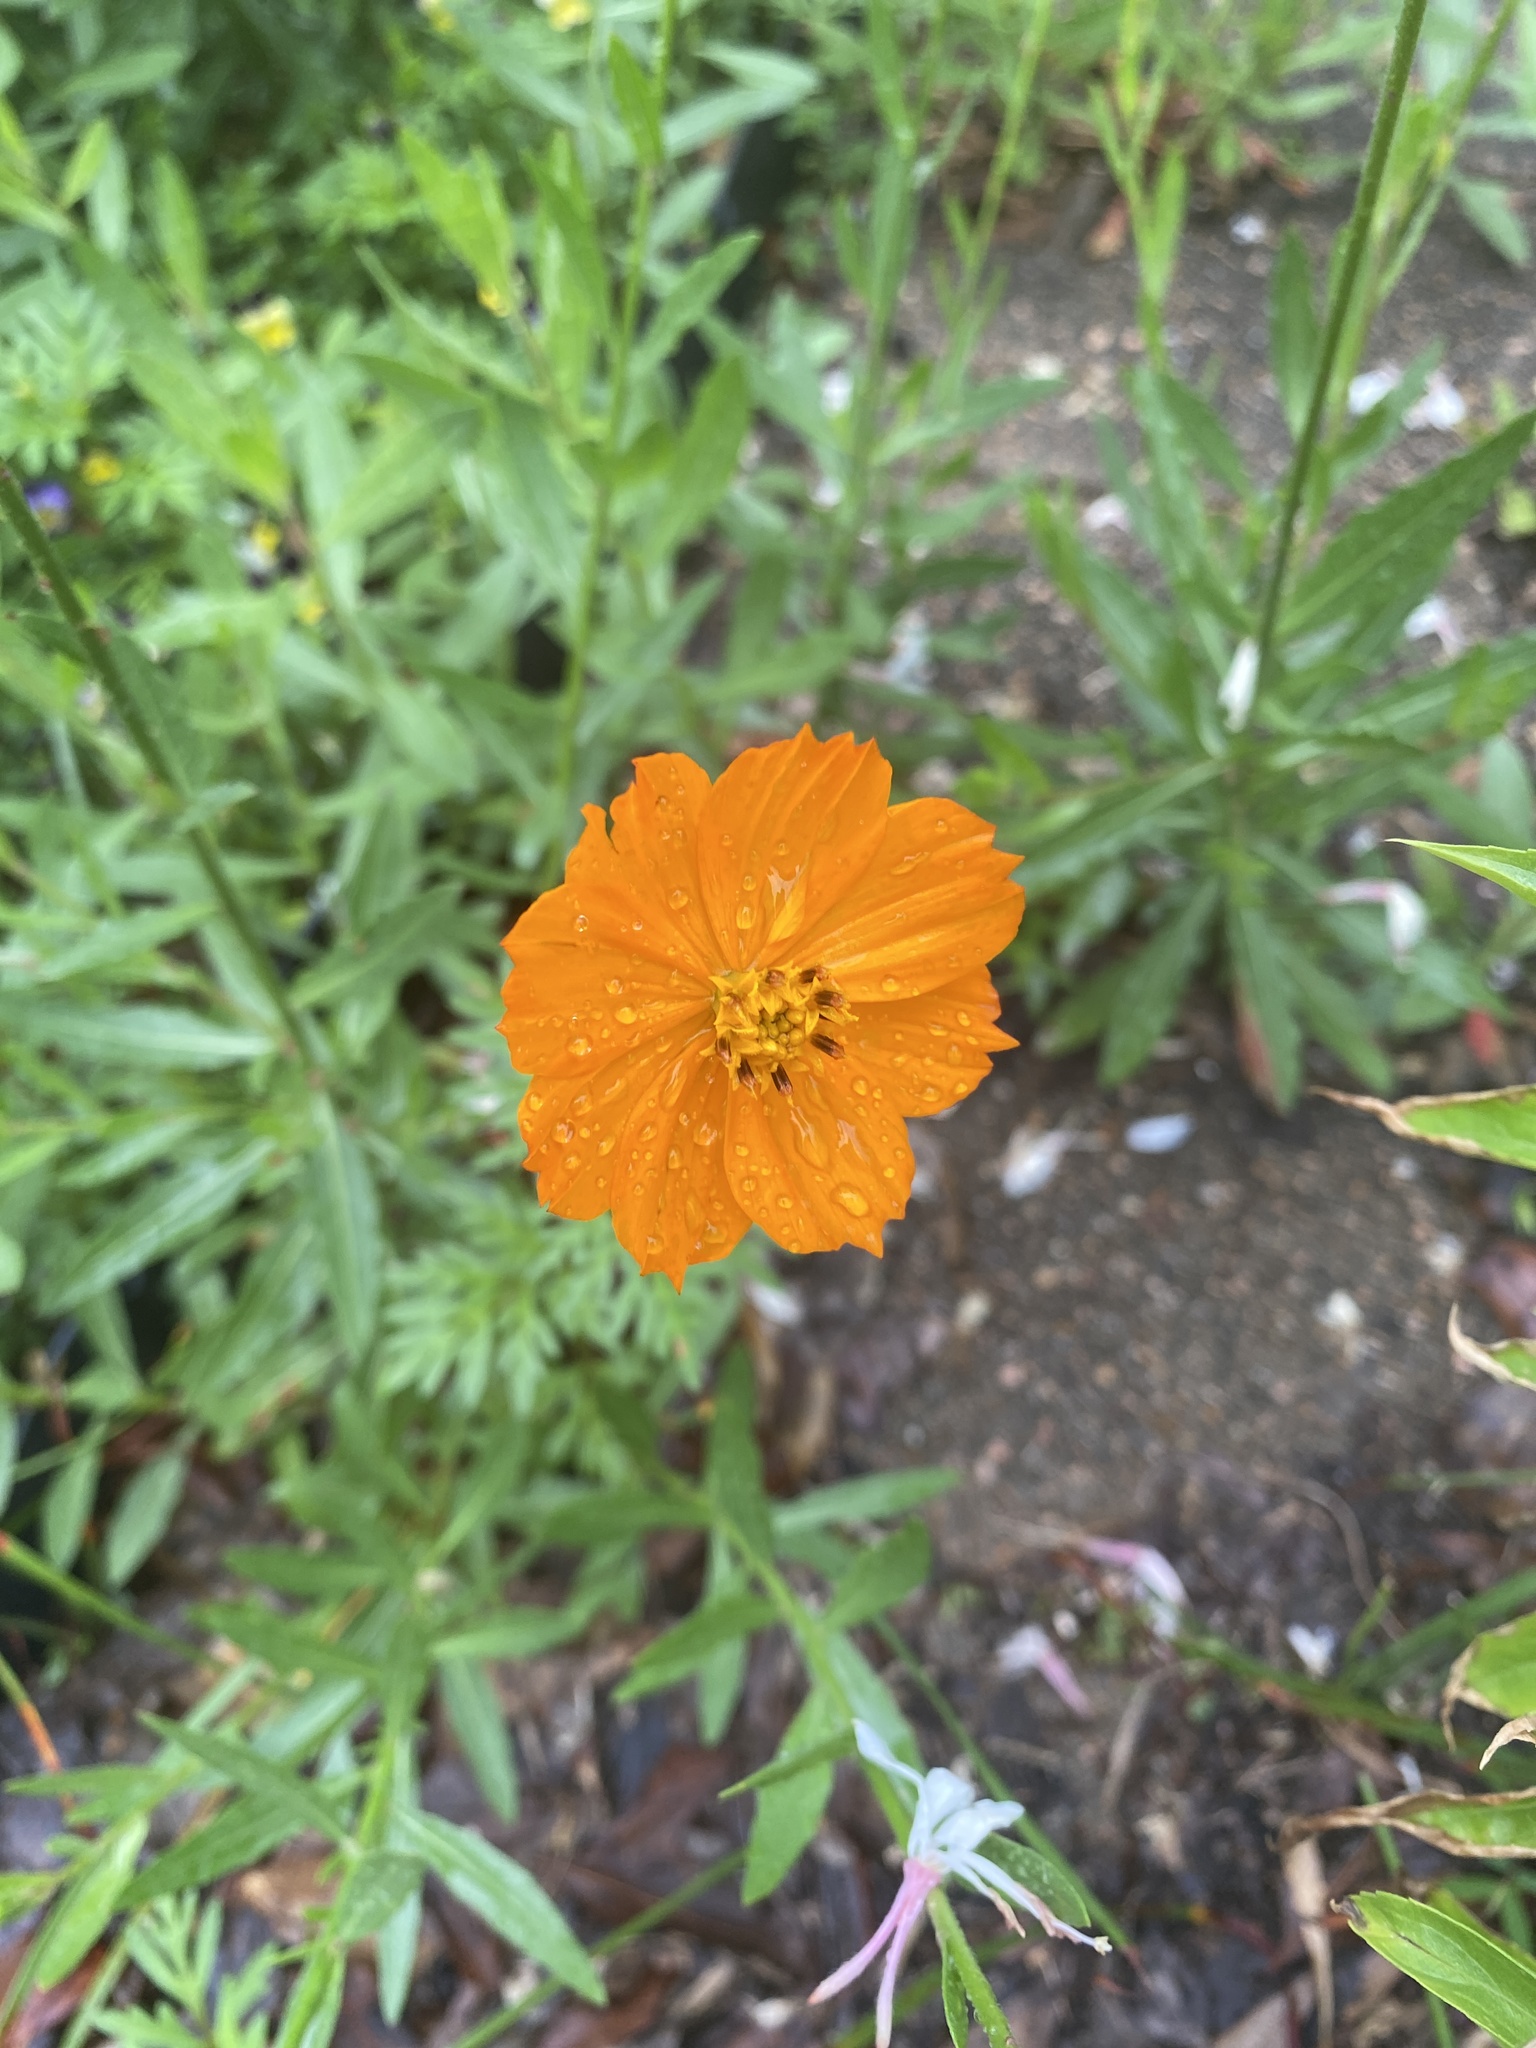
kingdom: Plantae
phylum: Tracheophyta
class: Magnoliopsida
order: Asterales
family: Asteraceae
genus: Cosmos
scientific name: Cosmos sulphureus
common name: Sulphur cosmos
